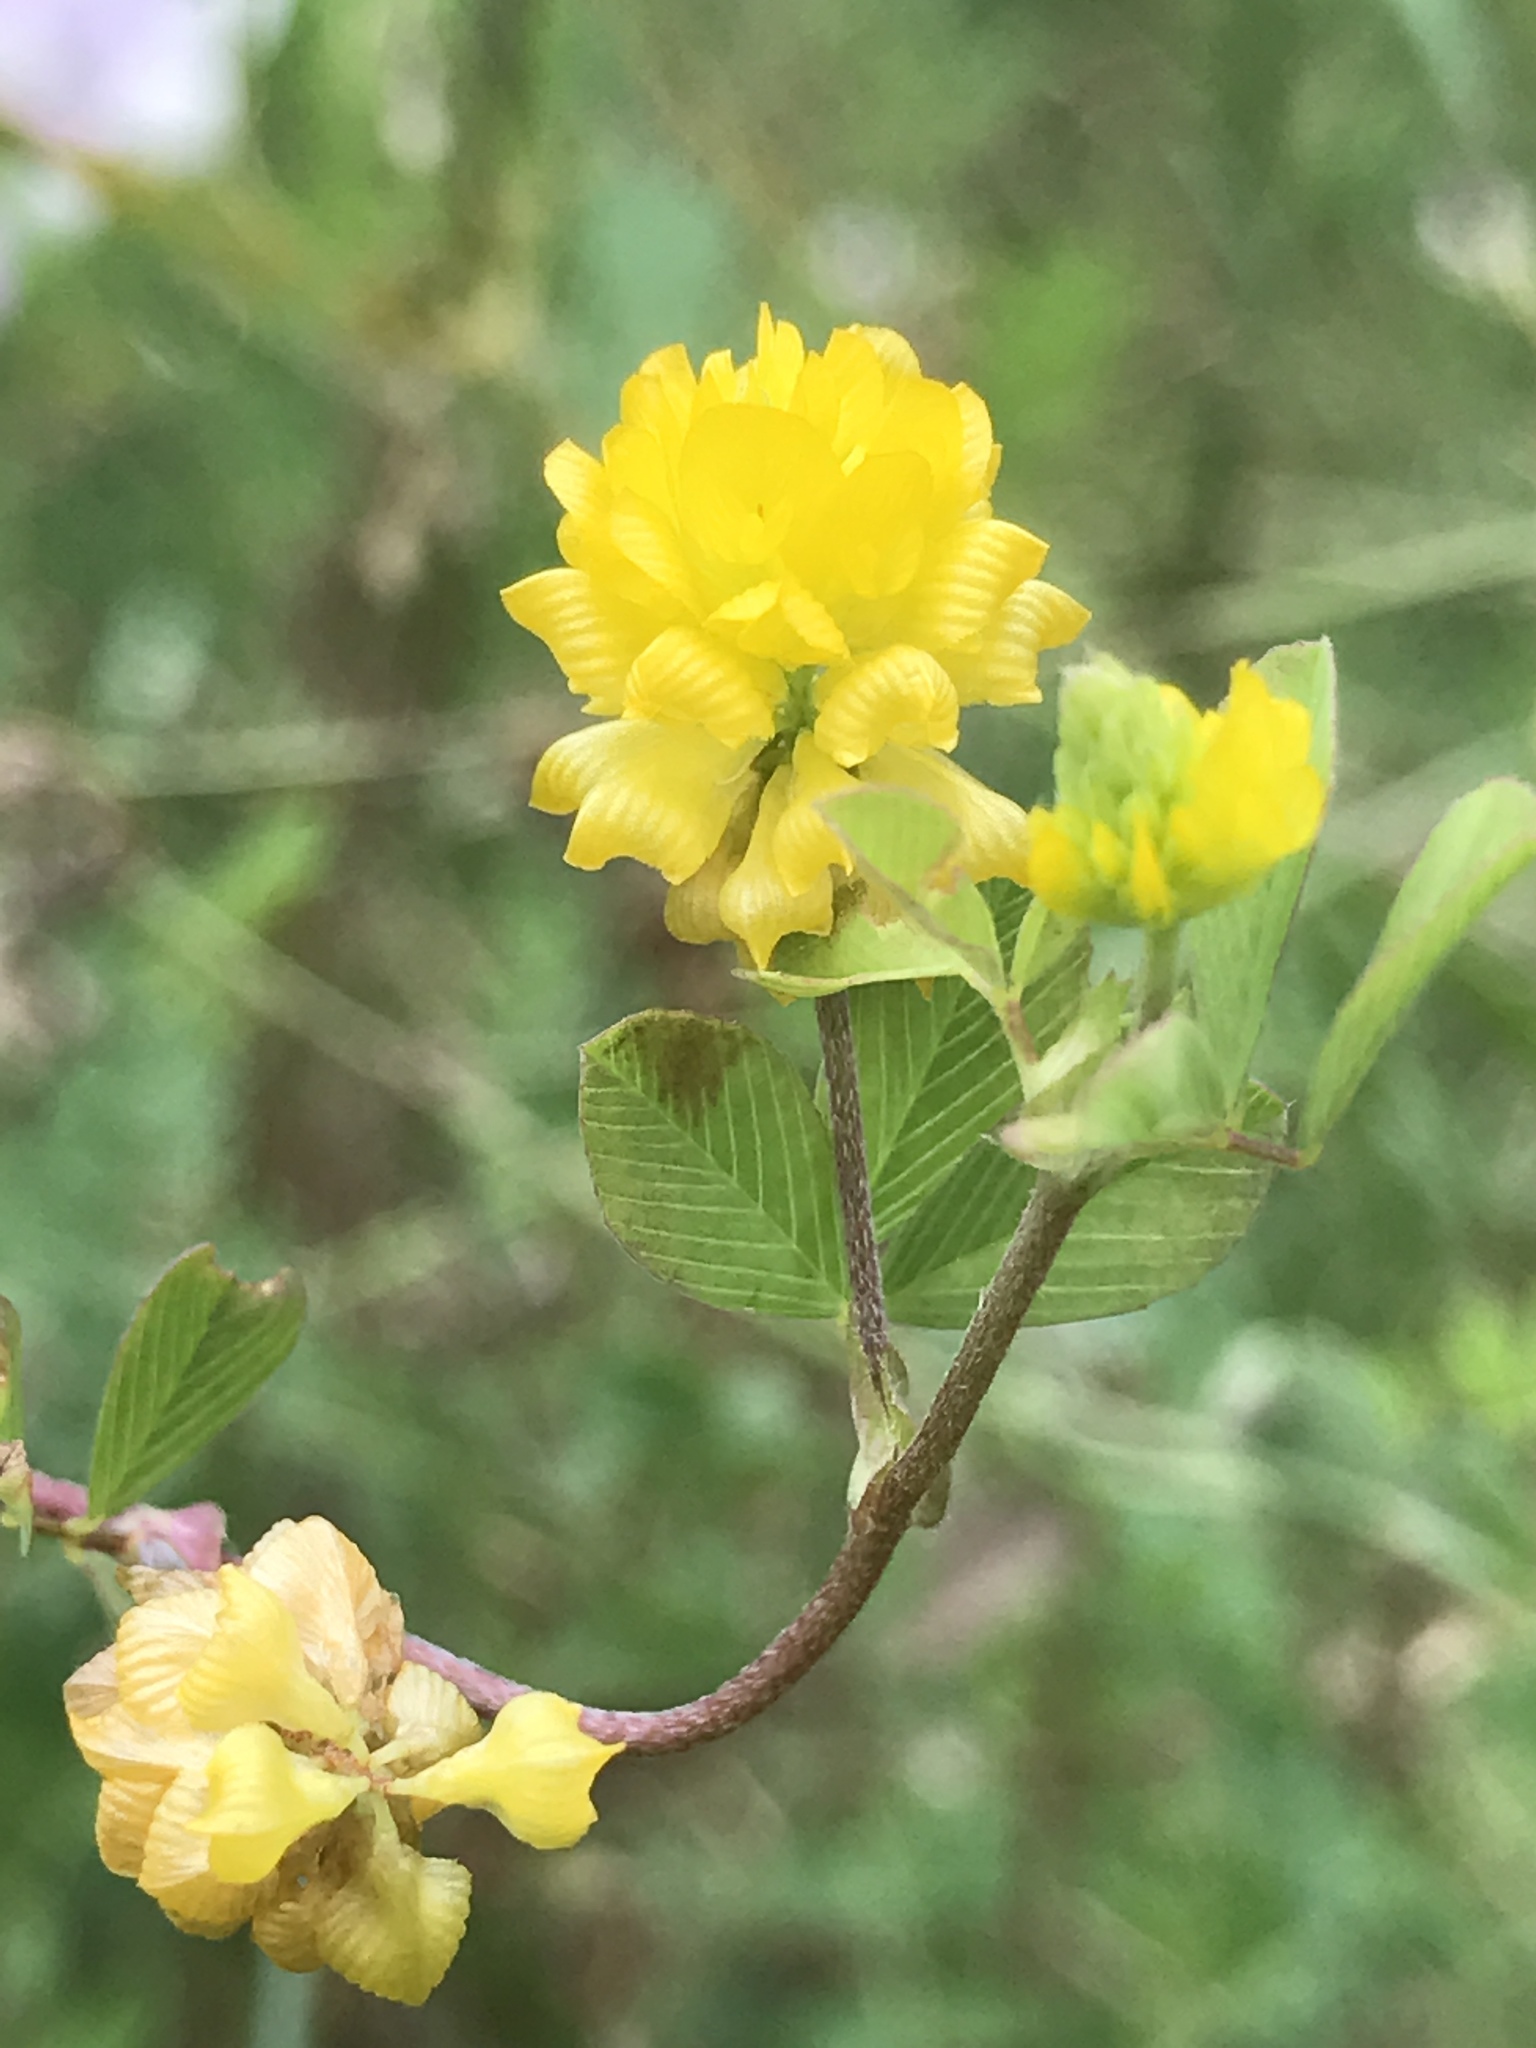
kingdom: Plantae
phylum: Tracheophyta
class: Magnoliopsida
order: Fabales
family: Fabaceae
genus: Trifolium
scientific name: Trifolium campestre
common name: Field clover
